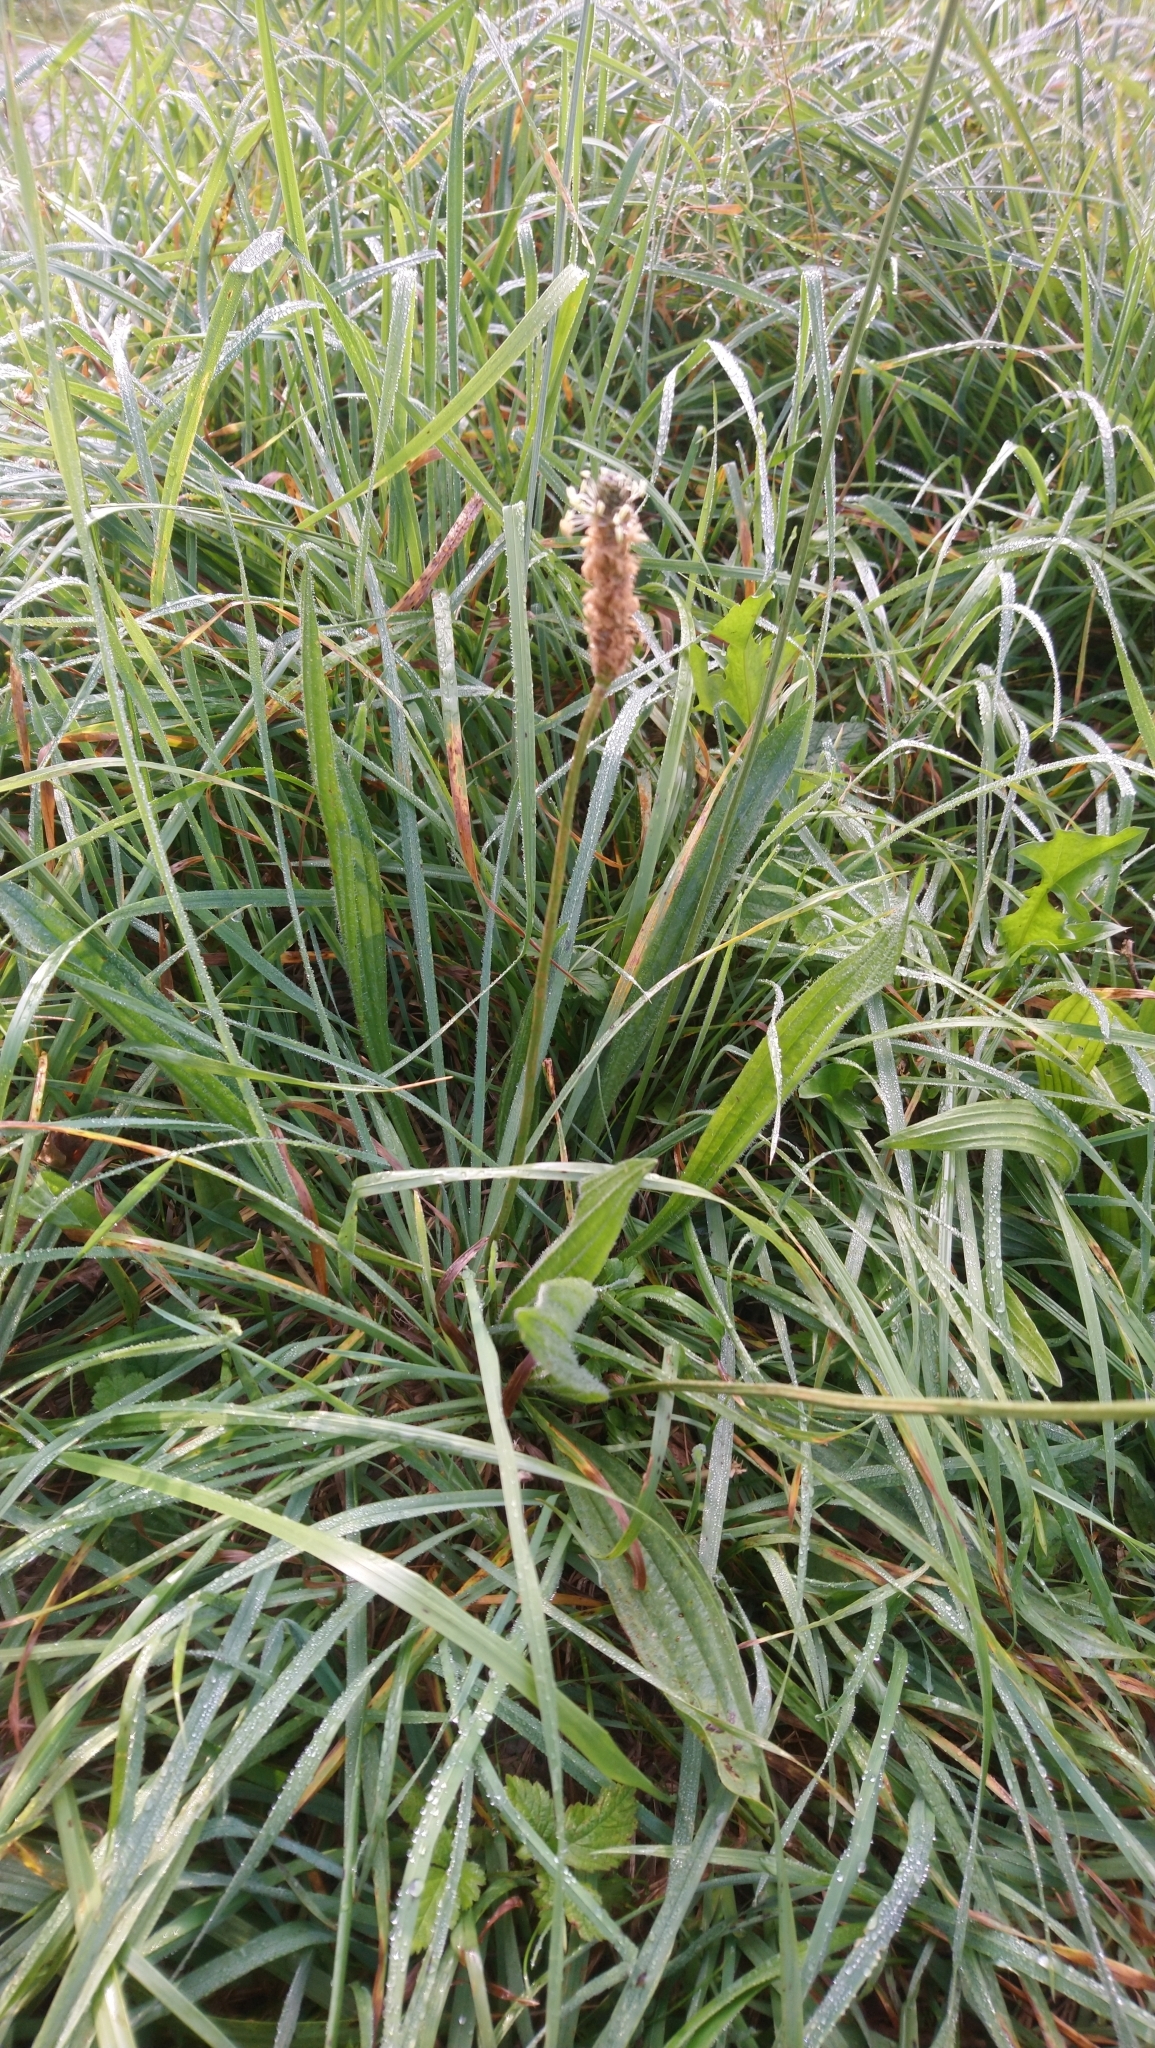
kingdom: Plantae
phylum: Tracheophyta
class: Magnoliopsida
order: Lamiales
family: Plantaginaceae
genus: Plantago
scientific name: Plantago lanceolata
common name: Ribwort plantain
